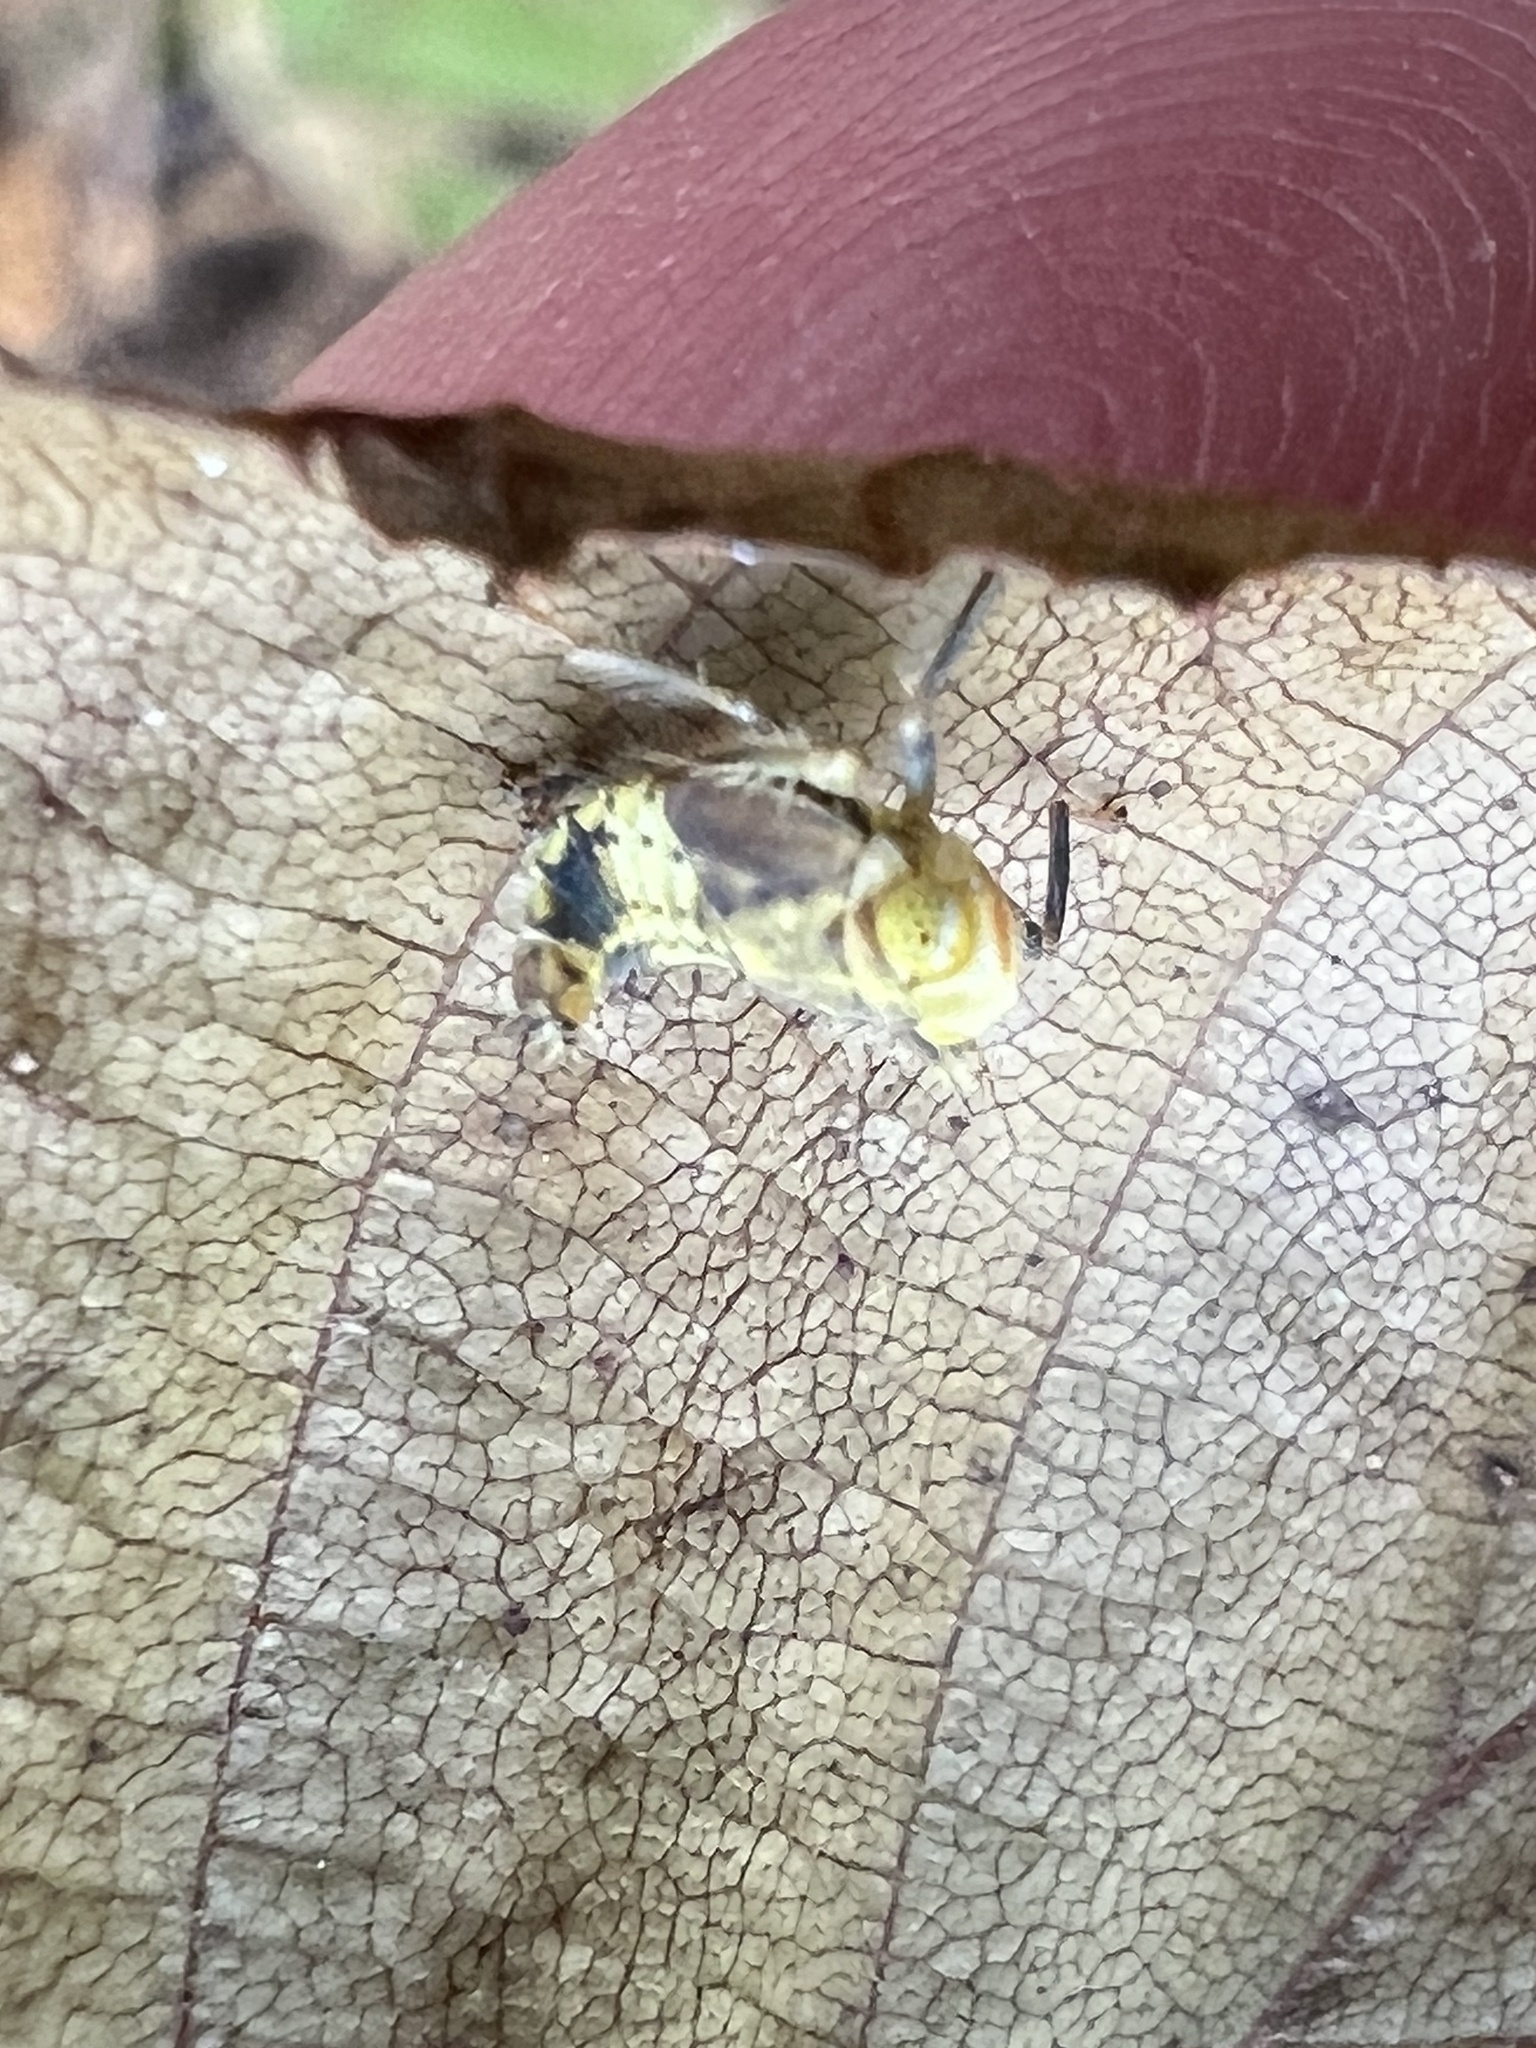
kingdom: Animalia
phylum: Arthropoda
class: Insecta
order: Hemiptera
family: Cicadellidae
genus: Jikradia
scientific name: Jikradia olitoria
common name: Coppery leafhopper
